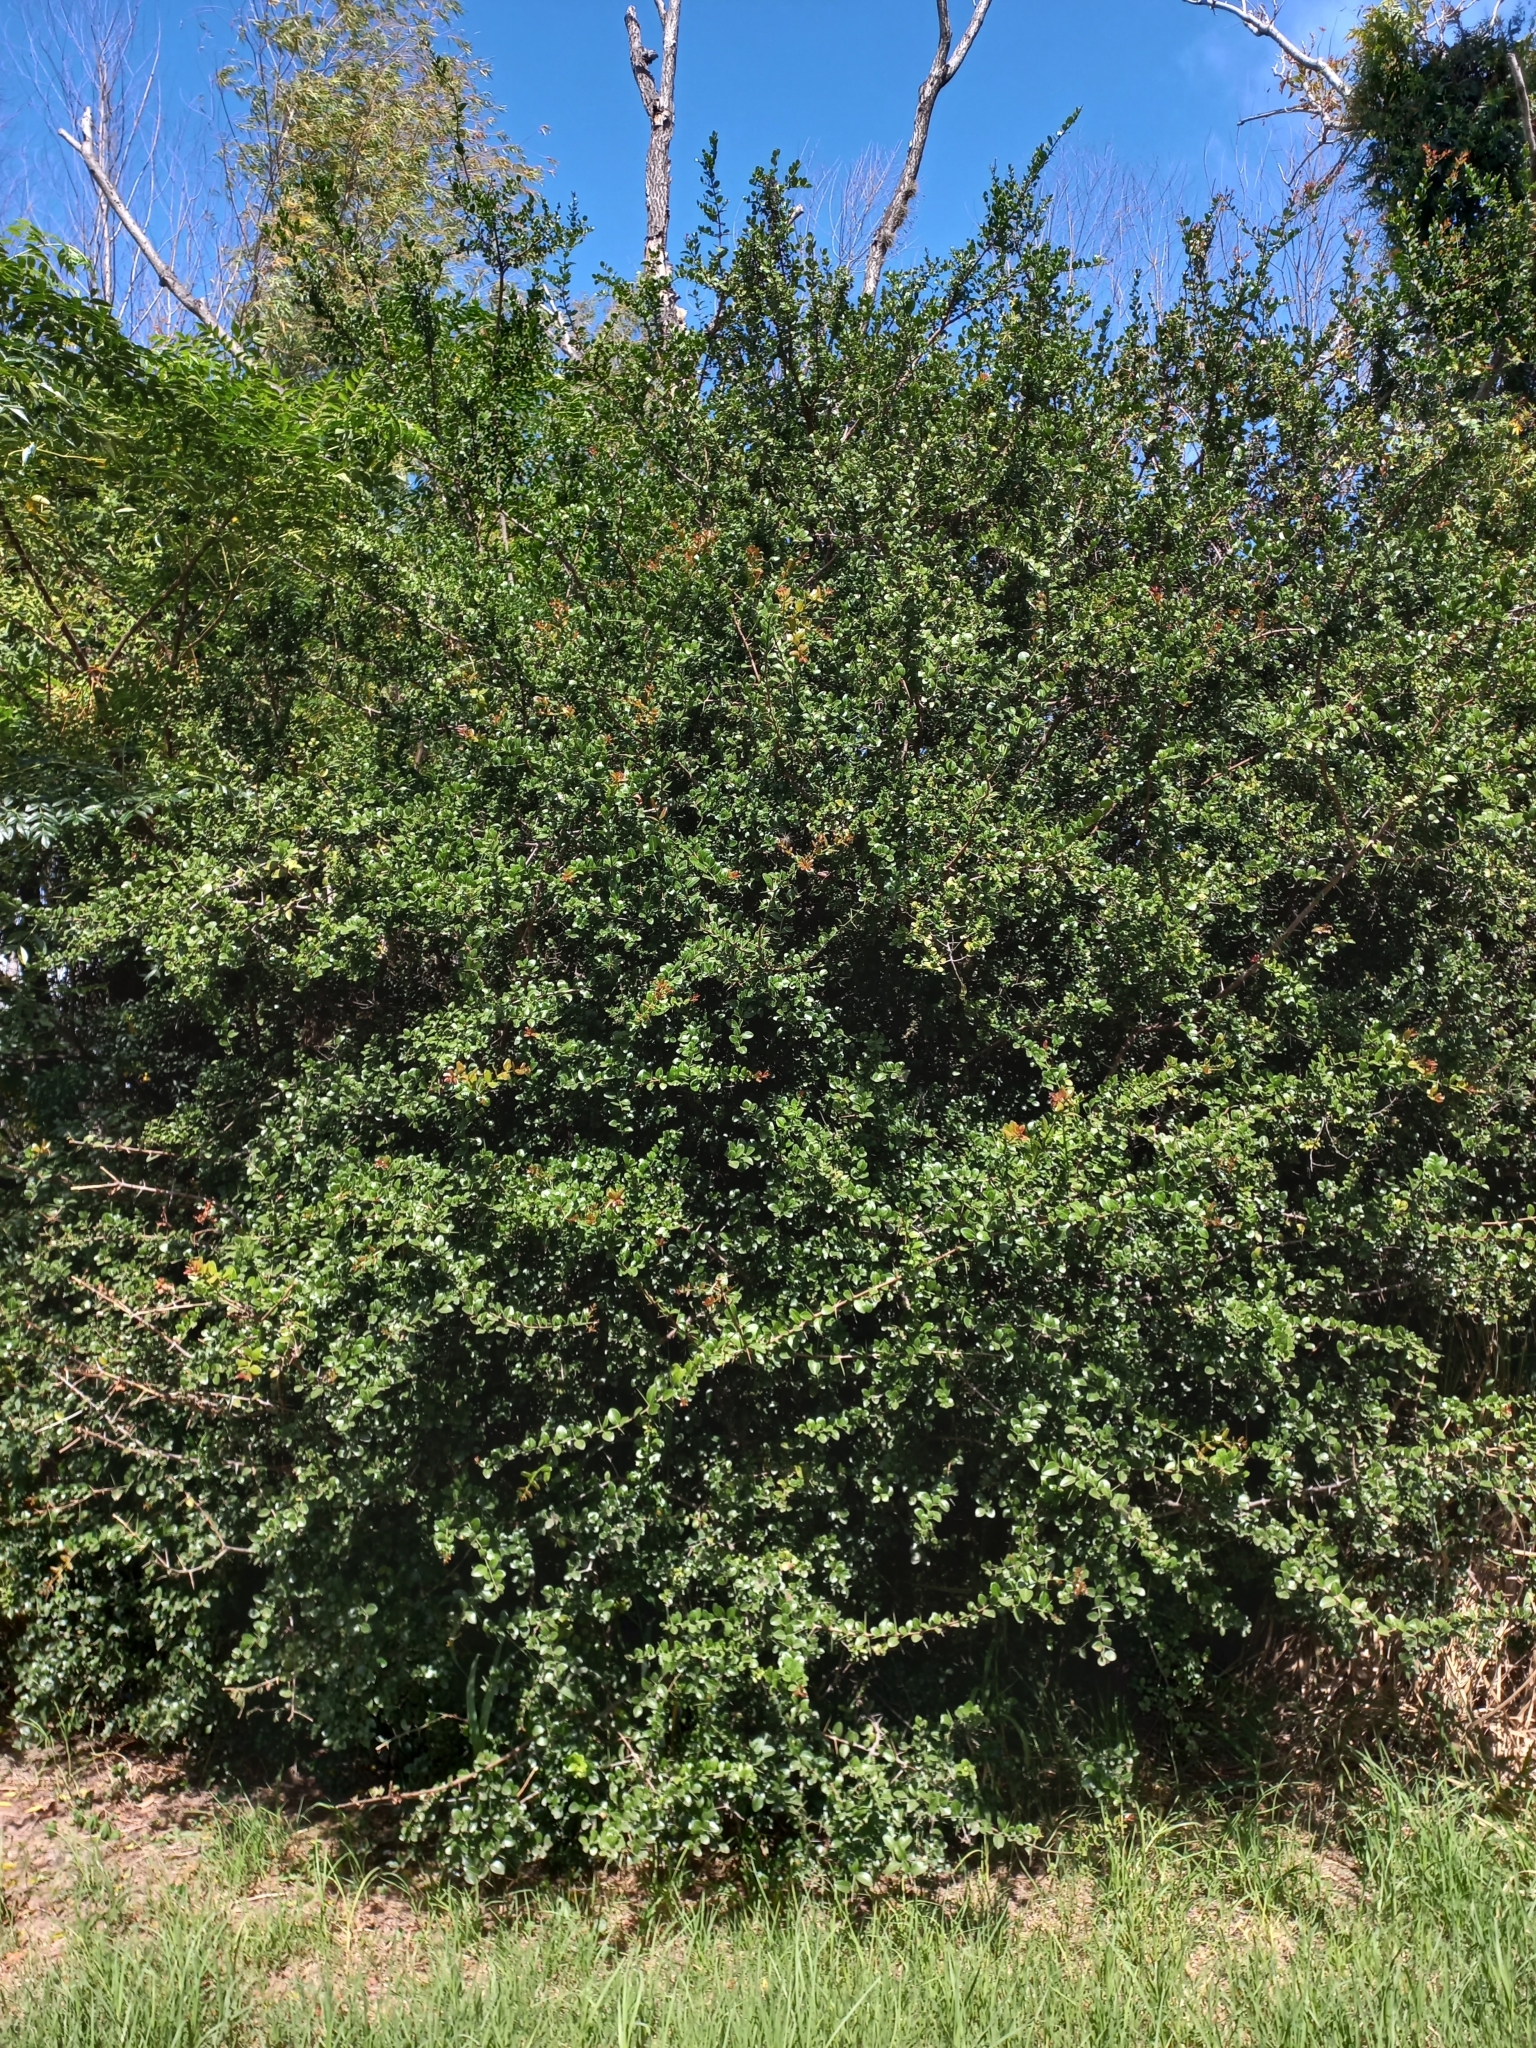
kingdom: Plantae
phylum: Tracheophyta
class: Magnoliopsida
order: Rosales
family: Rhamnaceae
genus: Scutia
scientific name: Scutia buxifolia
